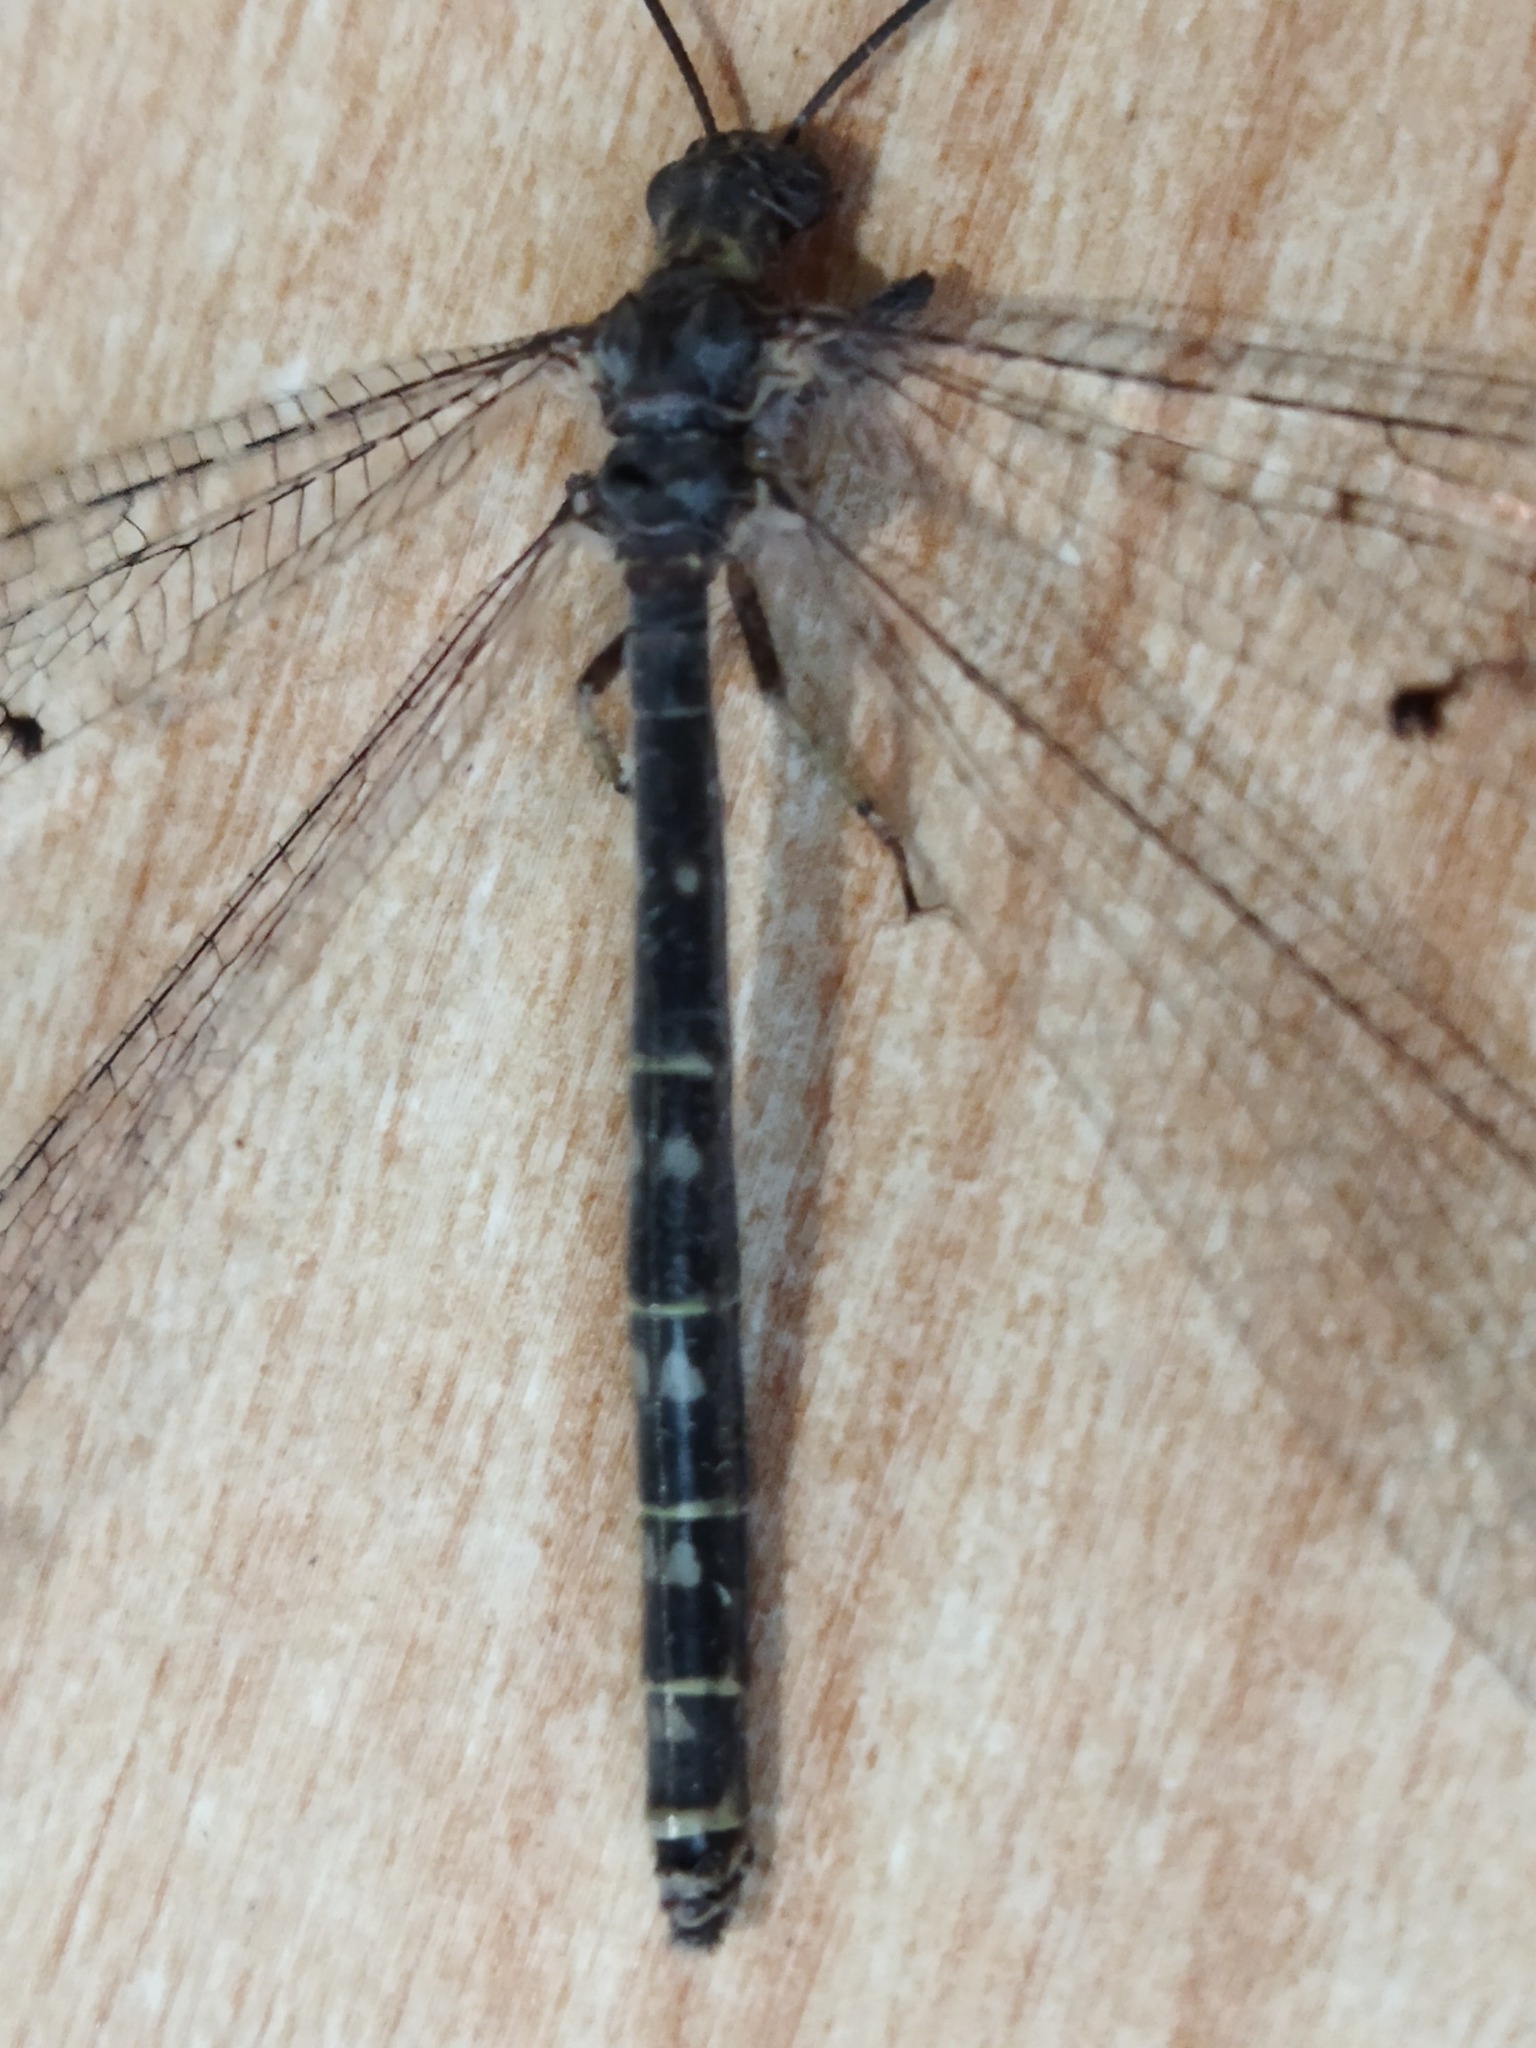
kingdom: Animalia
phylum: Arthropoda
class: Insecta
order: Neuroptera
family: Myrmeleontidae
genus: Distoleon
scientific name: Distoleon tetragrammicus
